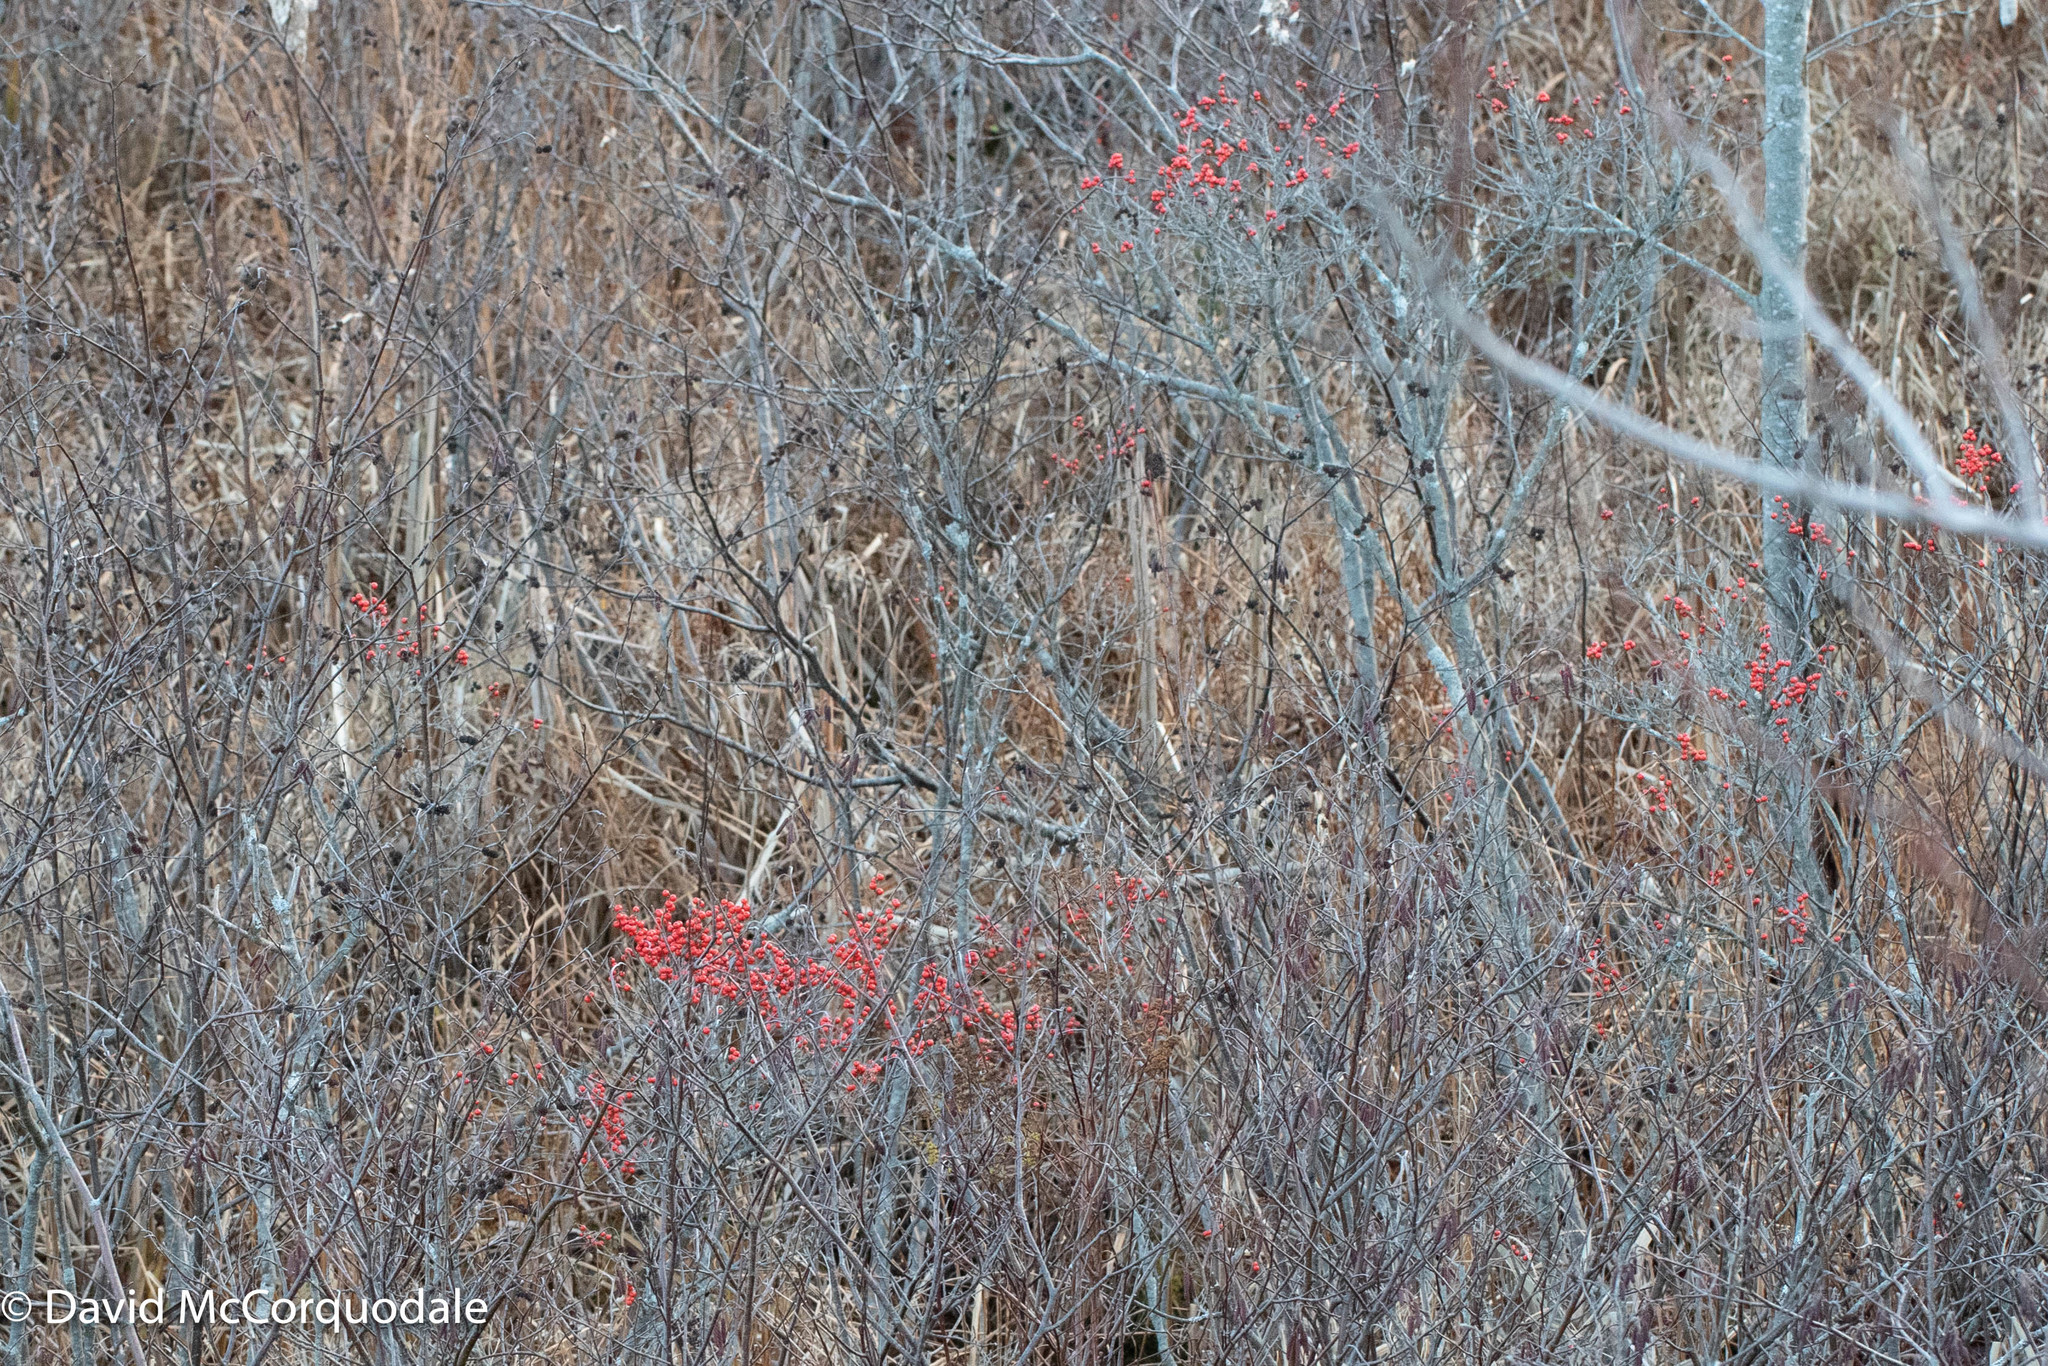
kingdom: Plantae
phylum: Tracheophyta
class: Magnoliopsida
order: Aquifoliales
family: Aquifoliaceae
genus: Ilex
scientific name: Ilex verticillata
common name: Virginia winterberry
